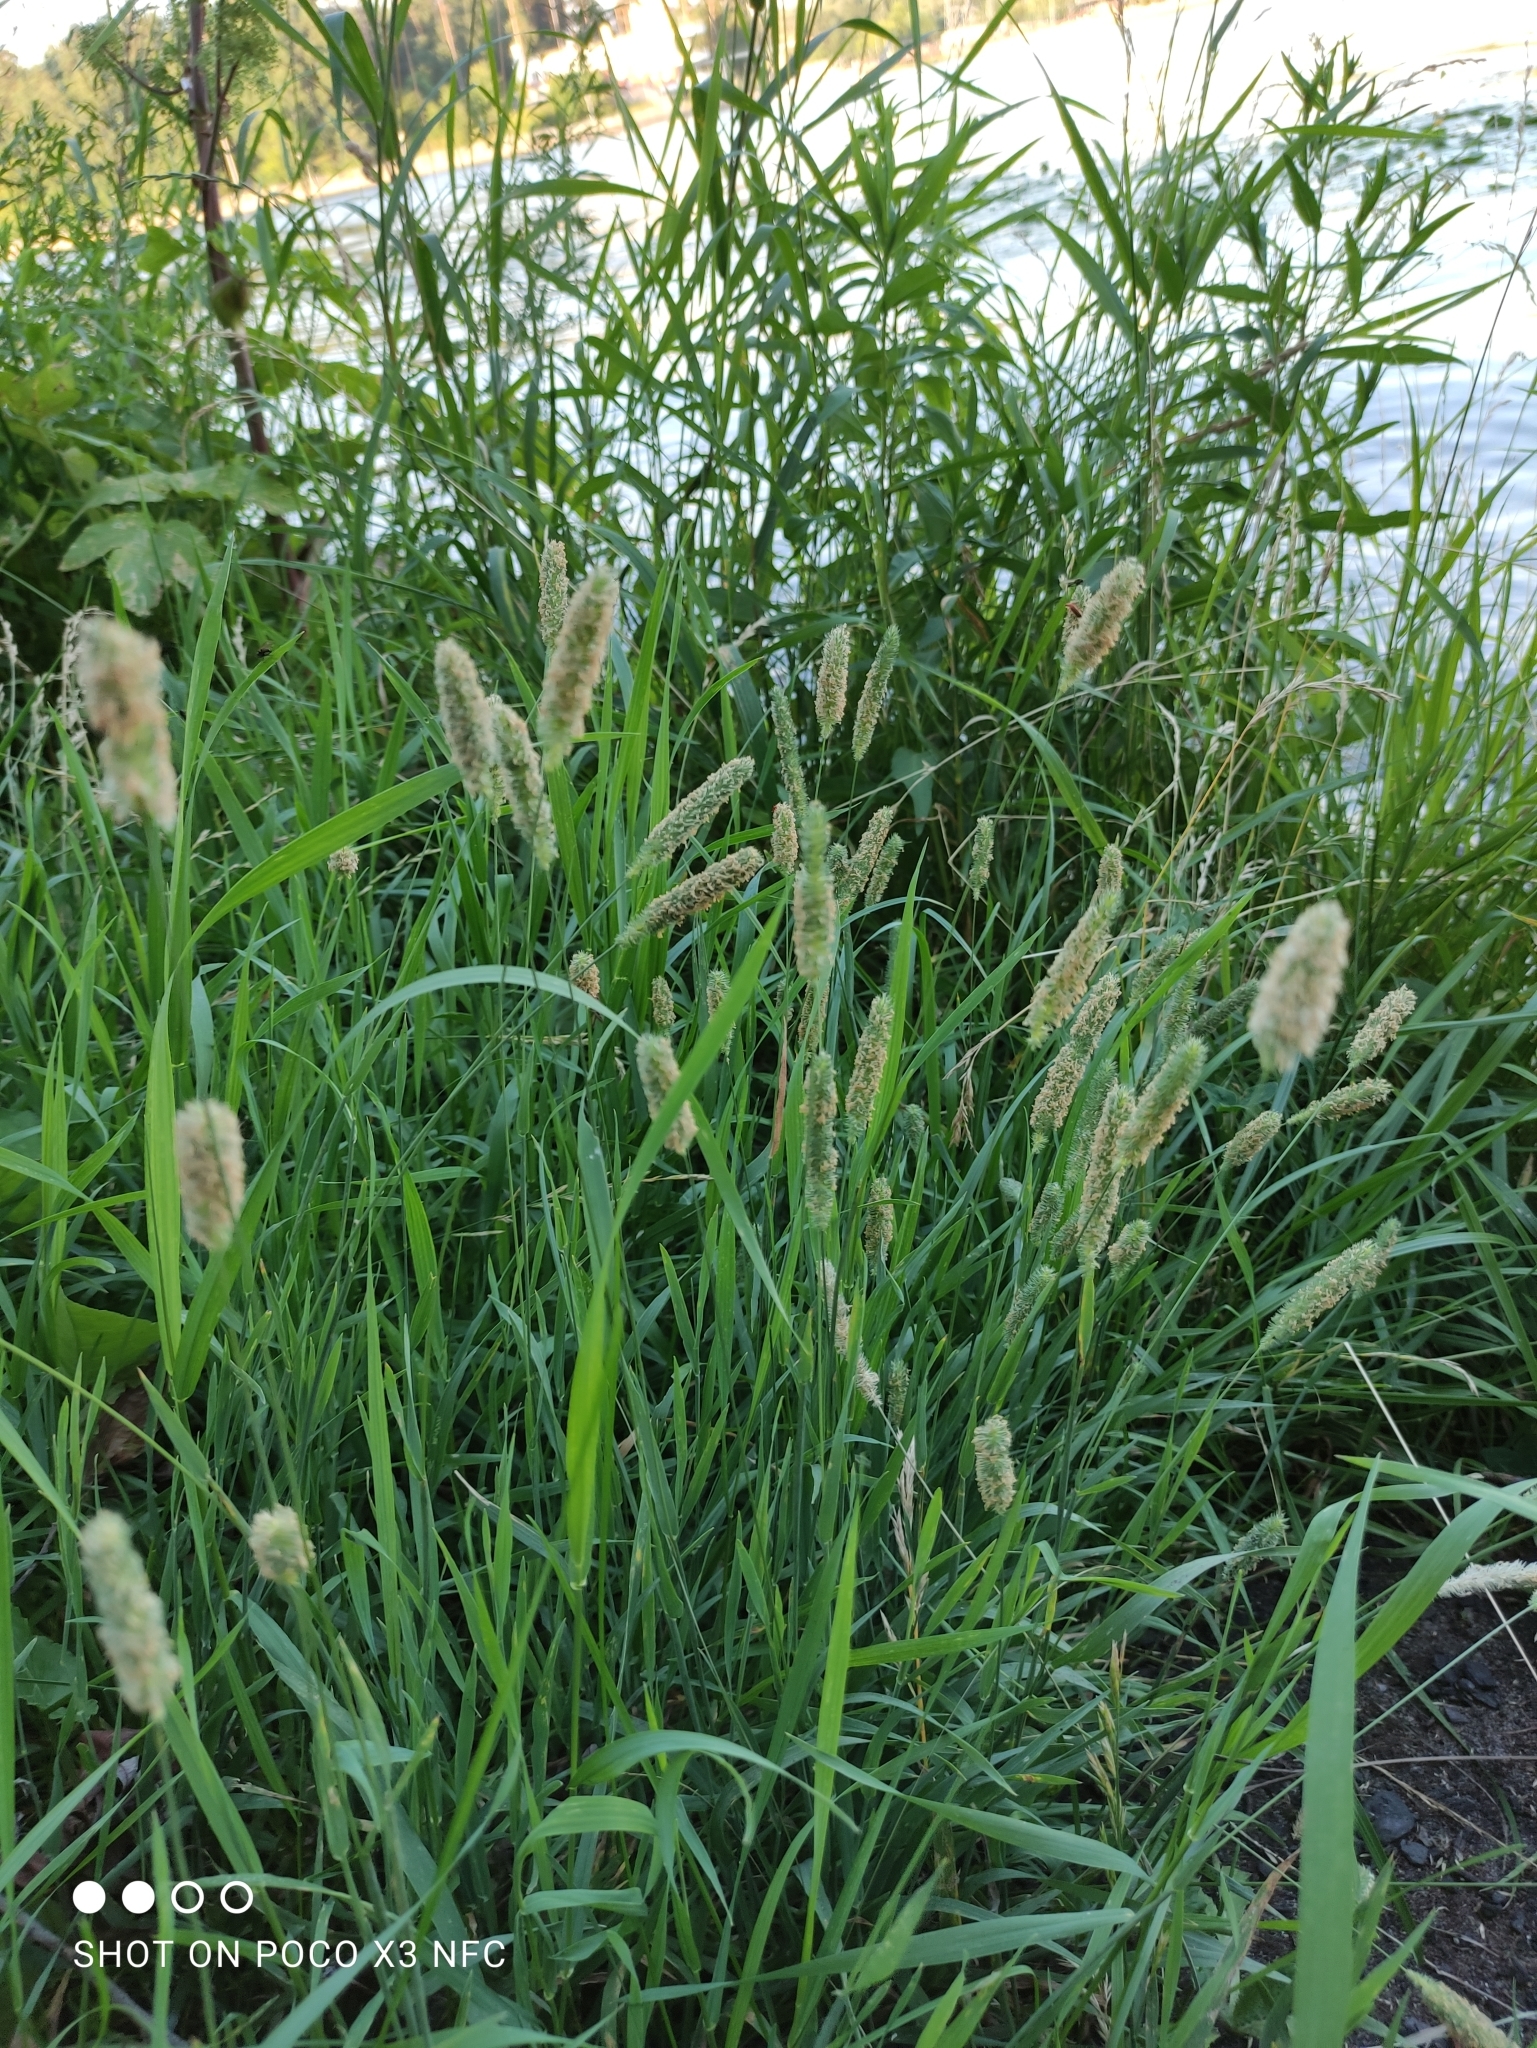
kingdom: Plantae
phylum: Tracheophyta
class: Liliopsida
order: Poales
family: Poaceae
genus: Phleum
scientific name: Phleum pratense
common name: Timothy grass
